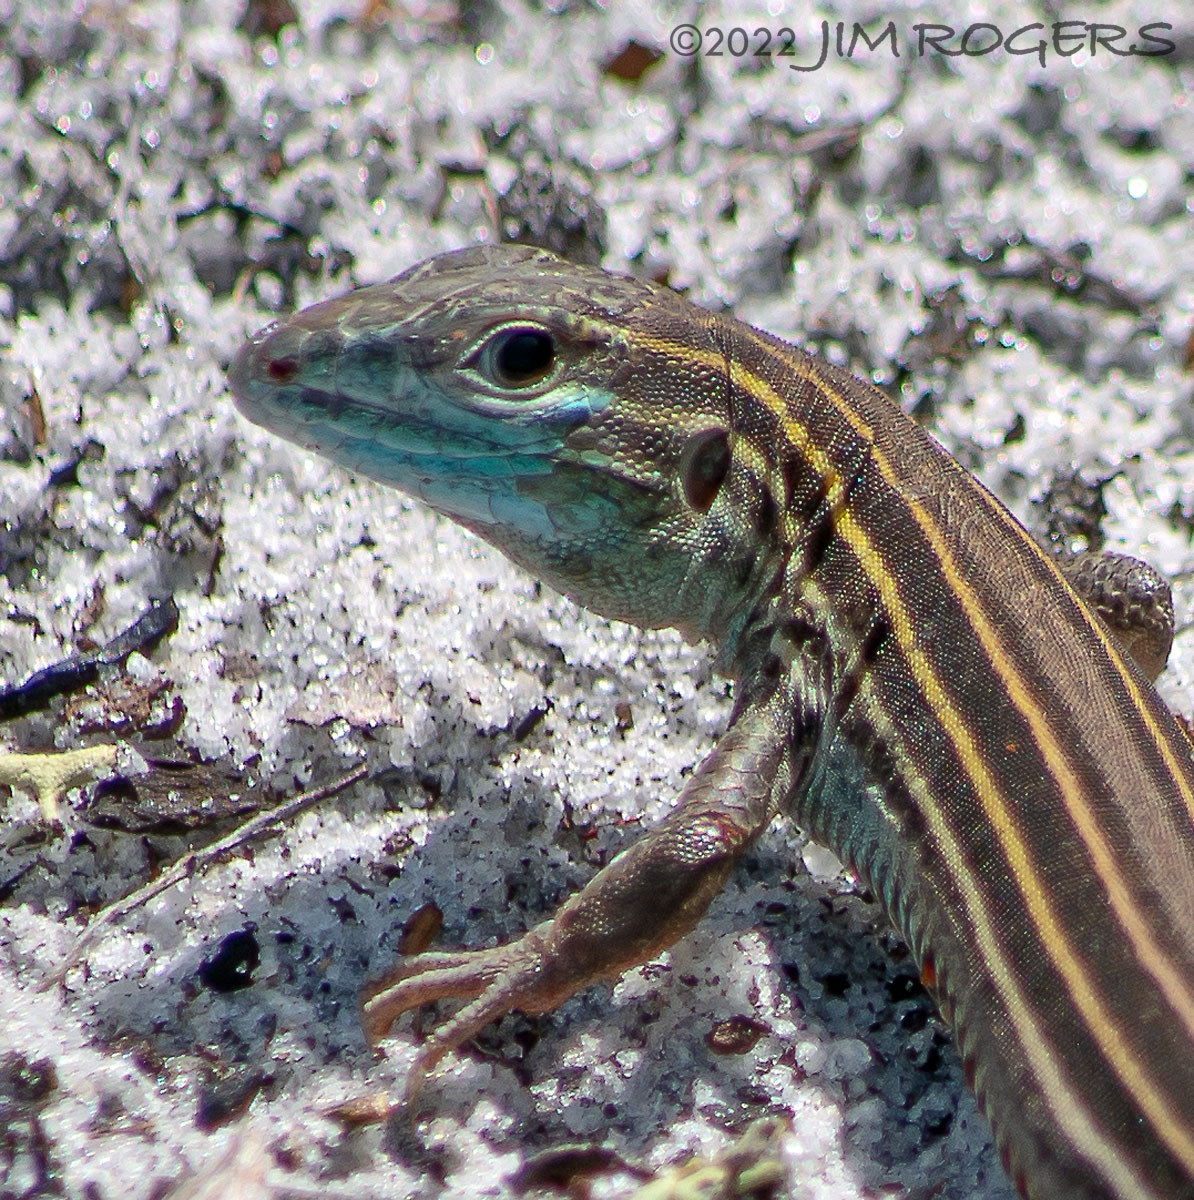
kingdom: Animalia
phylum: Chordata
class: Squamata
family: Teiidae
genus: Aspidoscelis
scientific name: Aspidoscelis sexlineatus
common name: Six-lined racerunner
